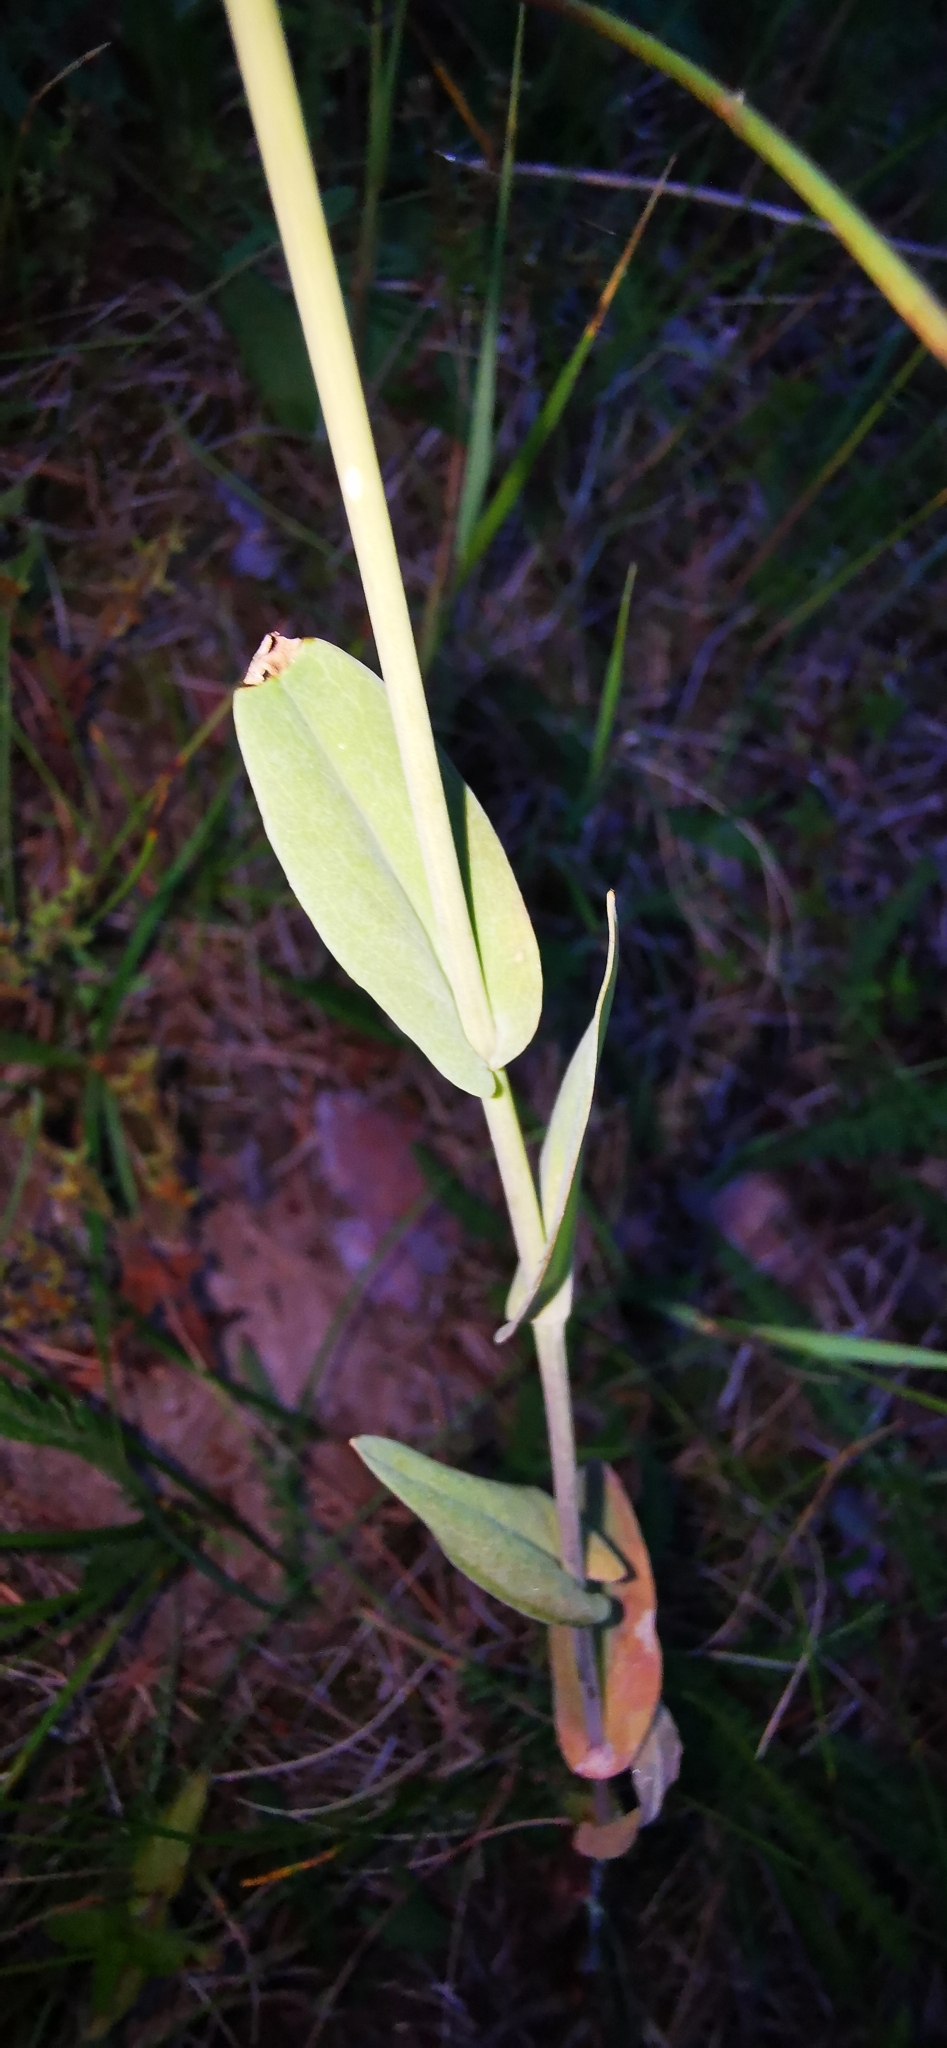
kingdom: Plantae
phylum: Tracheophyta
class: Magnoliopsida
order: Brassicales
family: Brassicaceae
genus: Turritis
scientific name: Turritis glabra
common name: Tower rockcress
